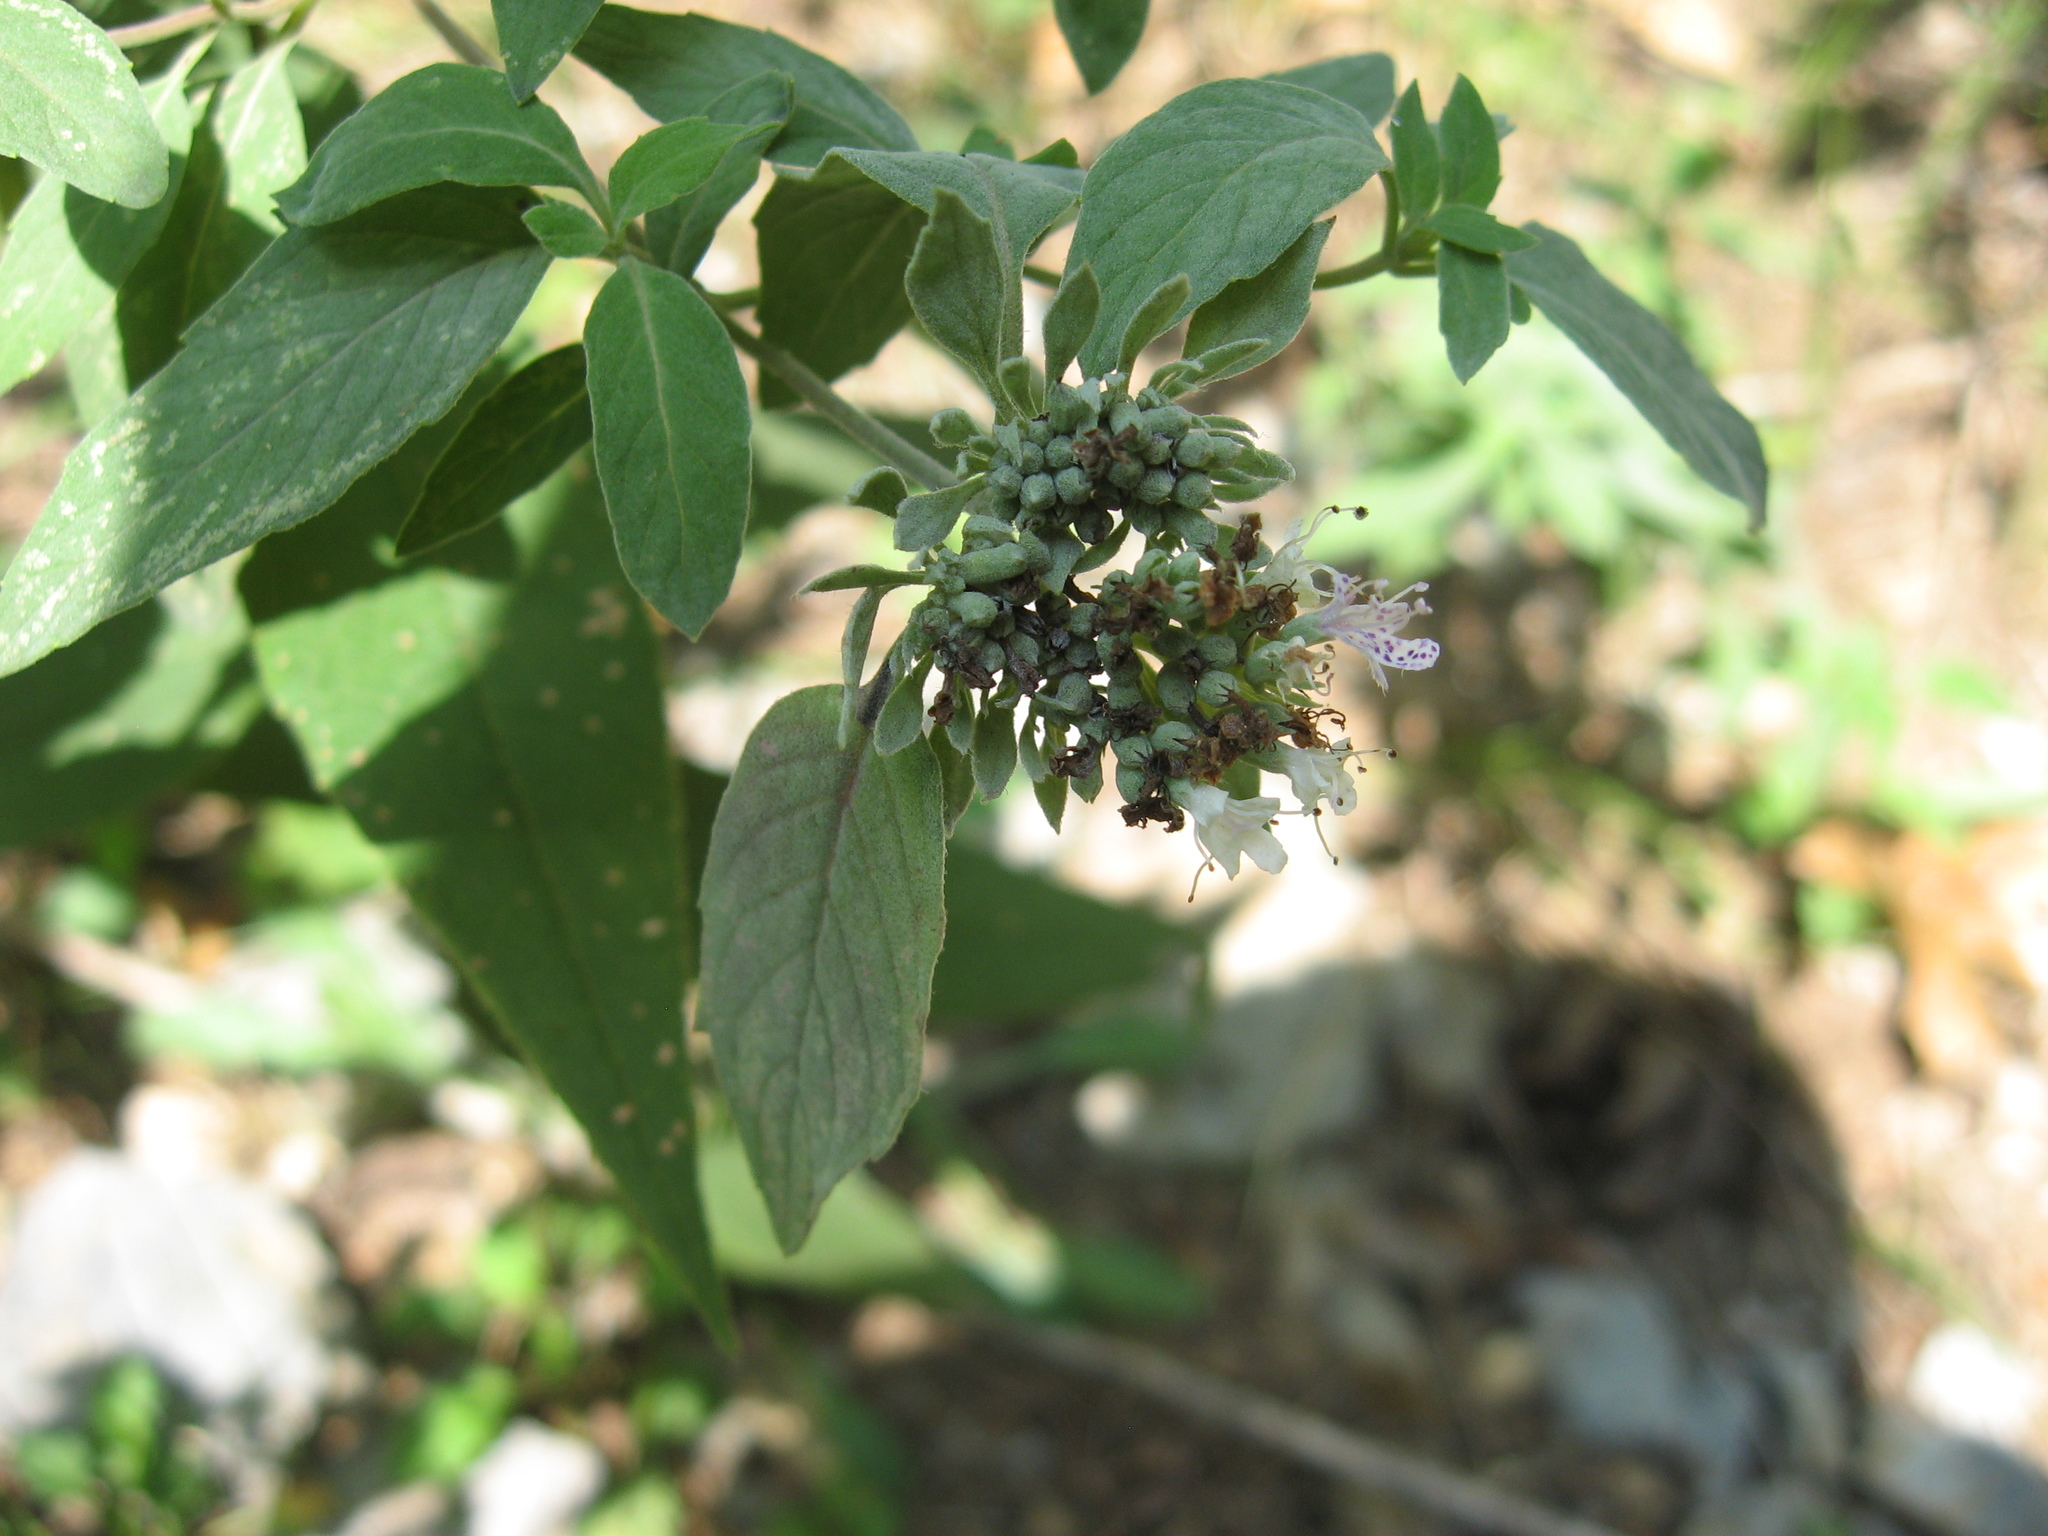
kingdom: Plantae
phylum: Tracheophyta
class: Magnoliopsida
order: Lamiales
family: Lamiaceae
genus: Pycnanthemum
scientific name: Pycnanthemum curvipes
